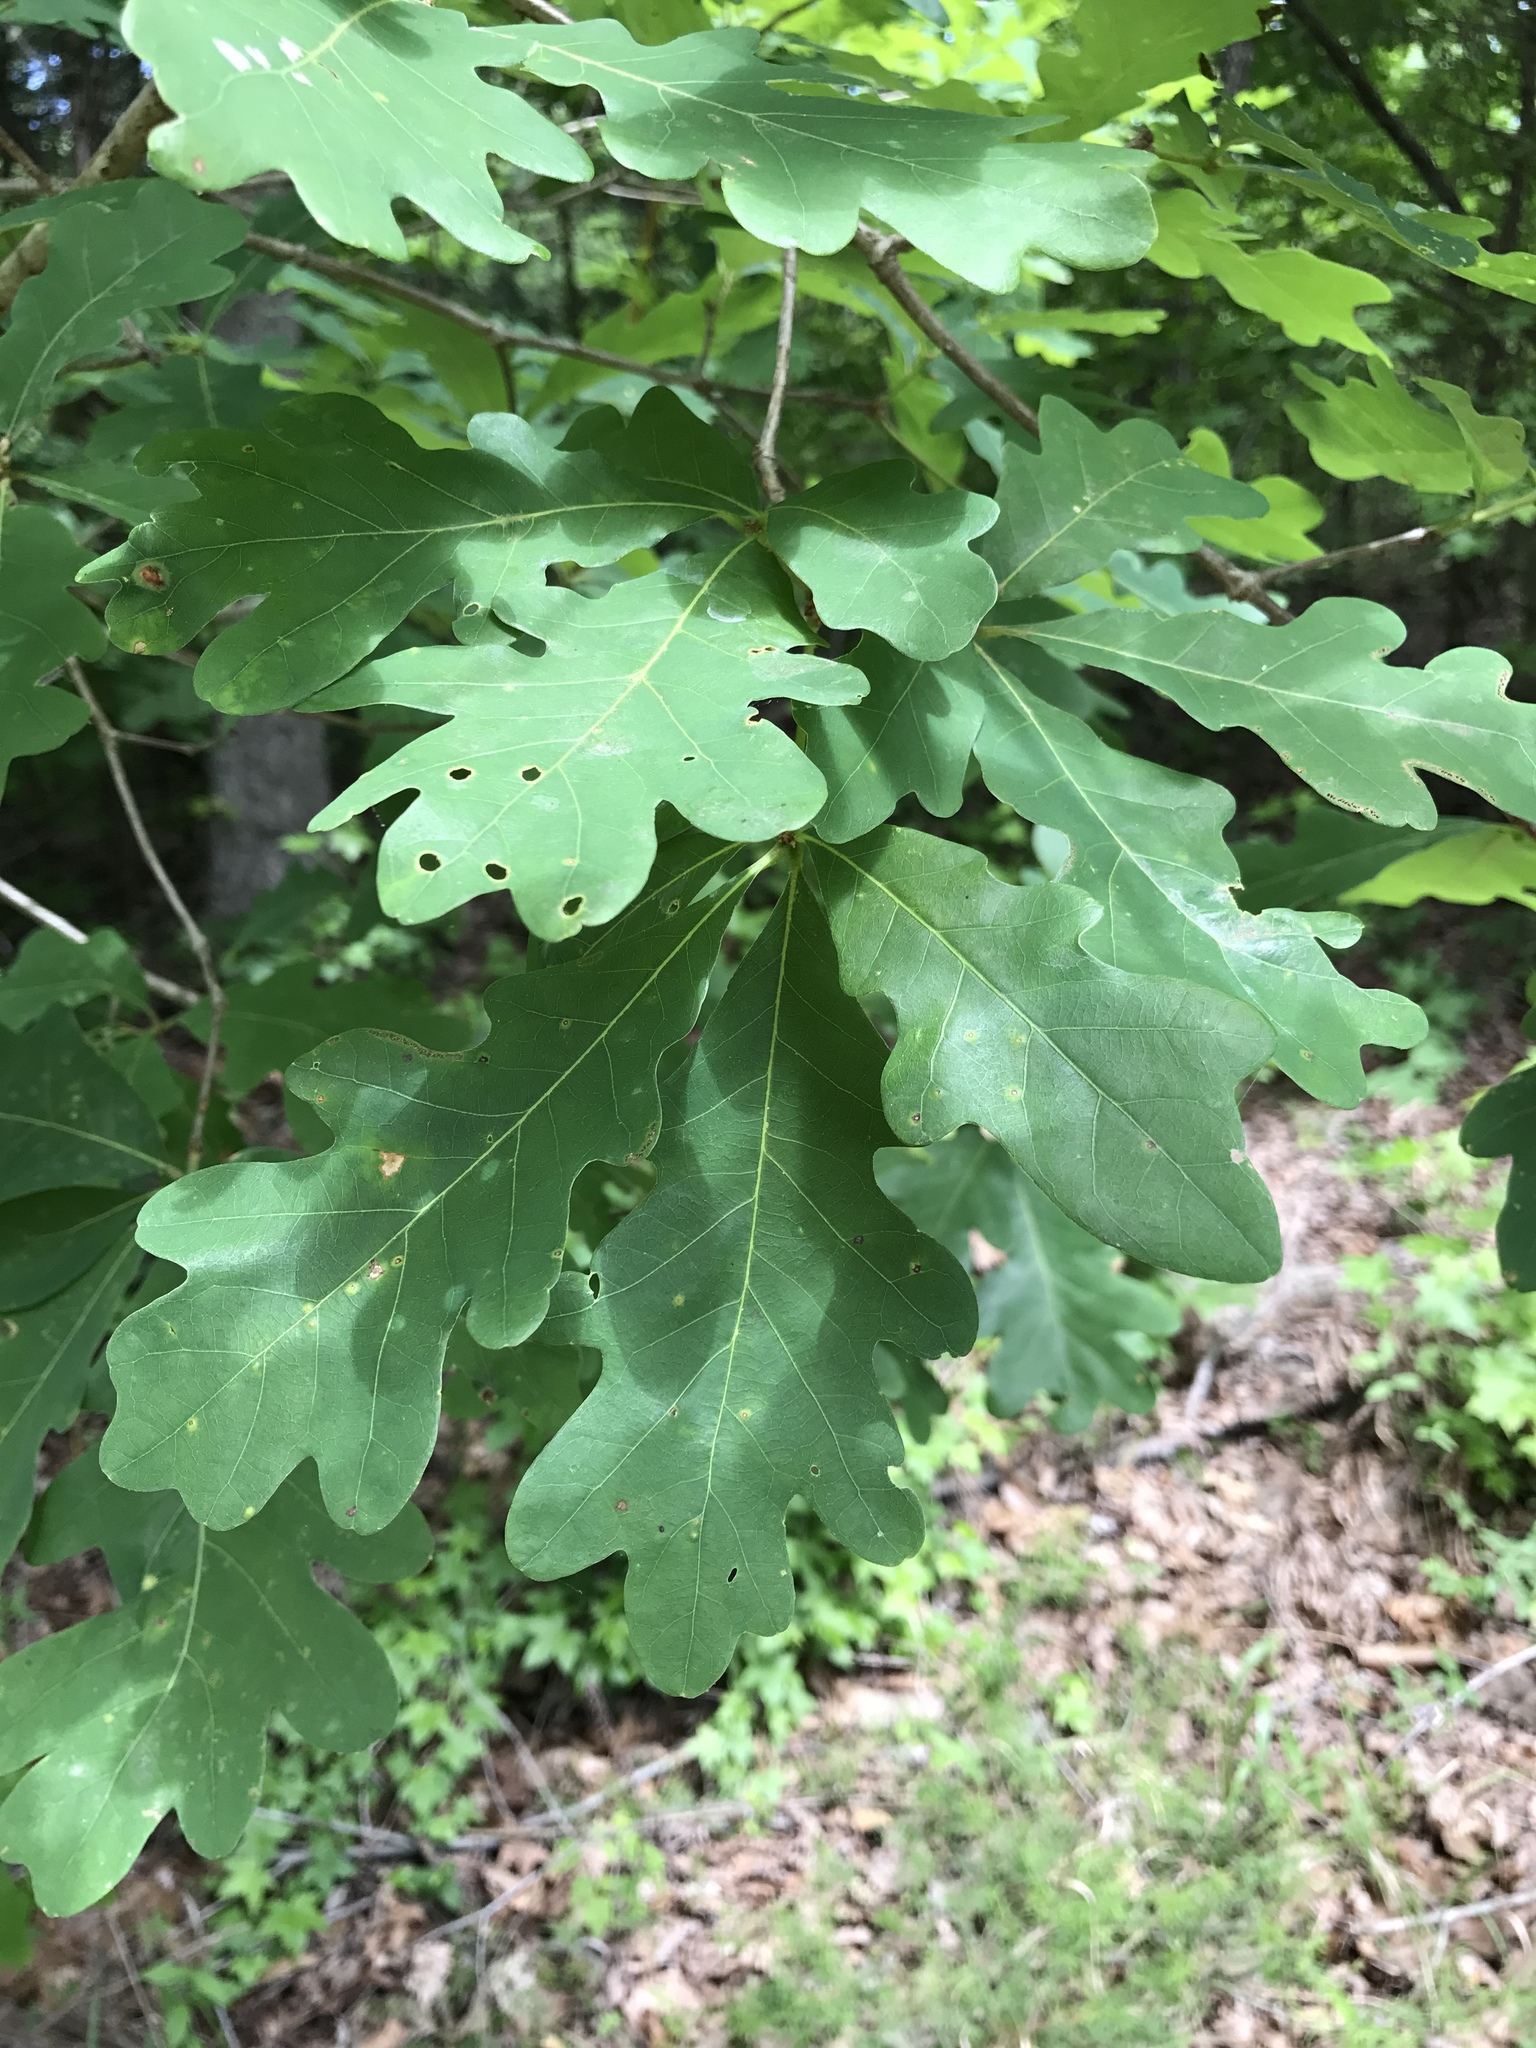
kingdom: Plantae
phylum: Tracheophyta
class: Magnoliopsida
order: Fagales
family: Fagaceae
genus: Quercus
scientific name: Quercus alba
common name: White oak
